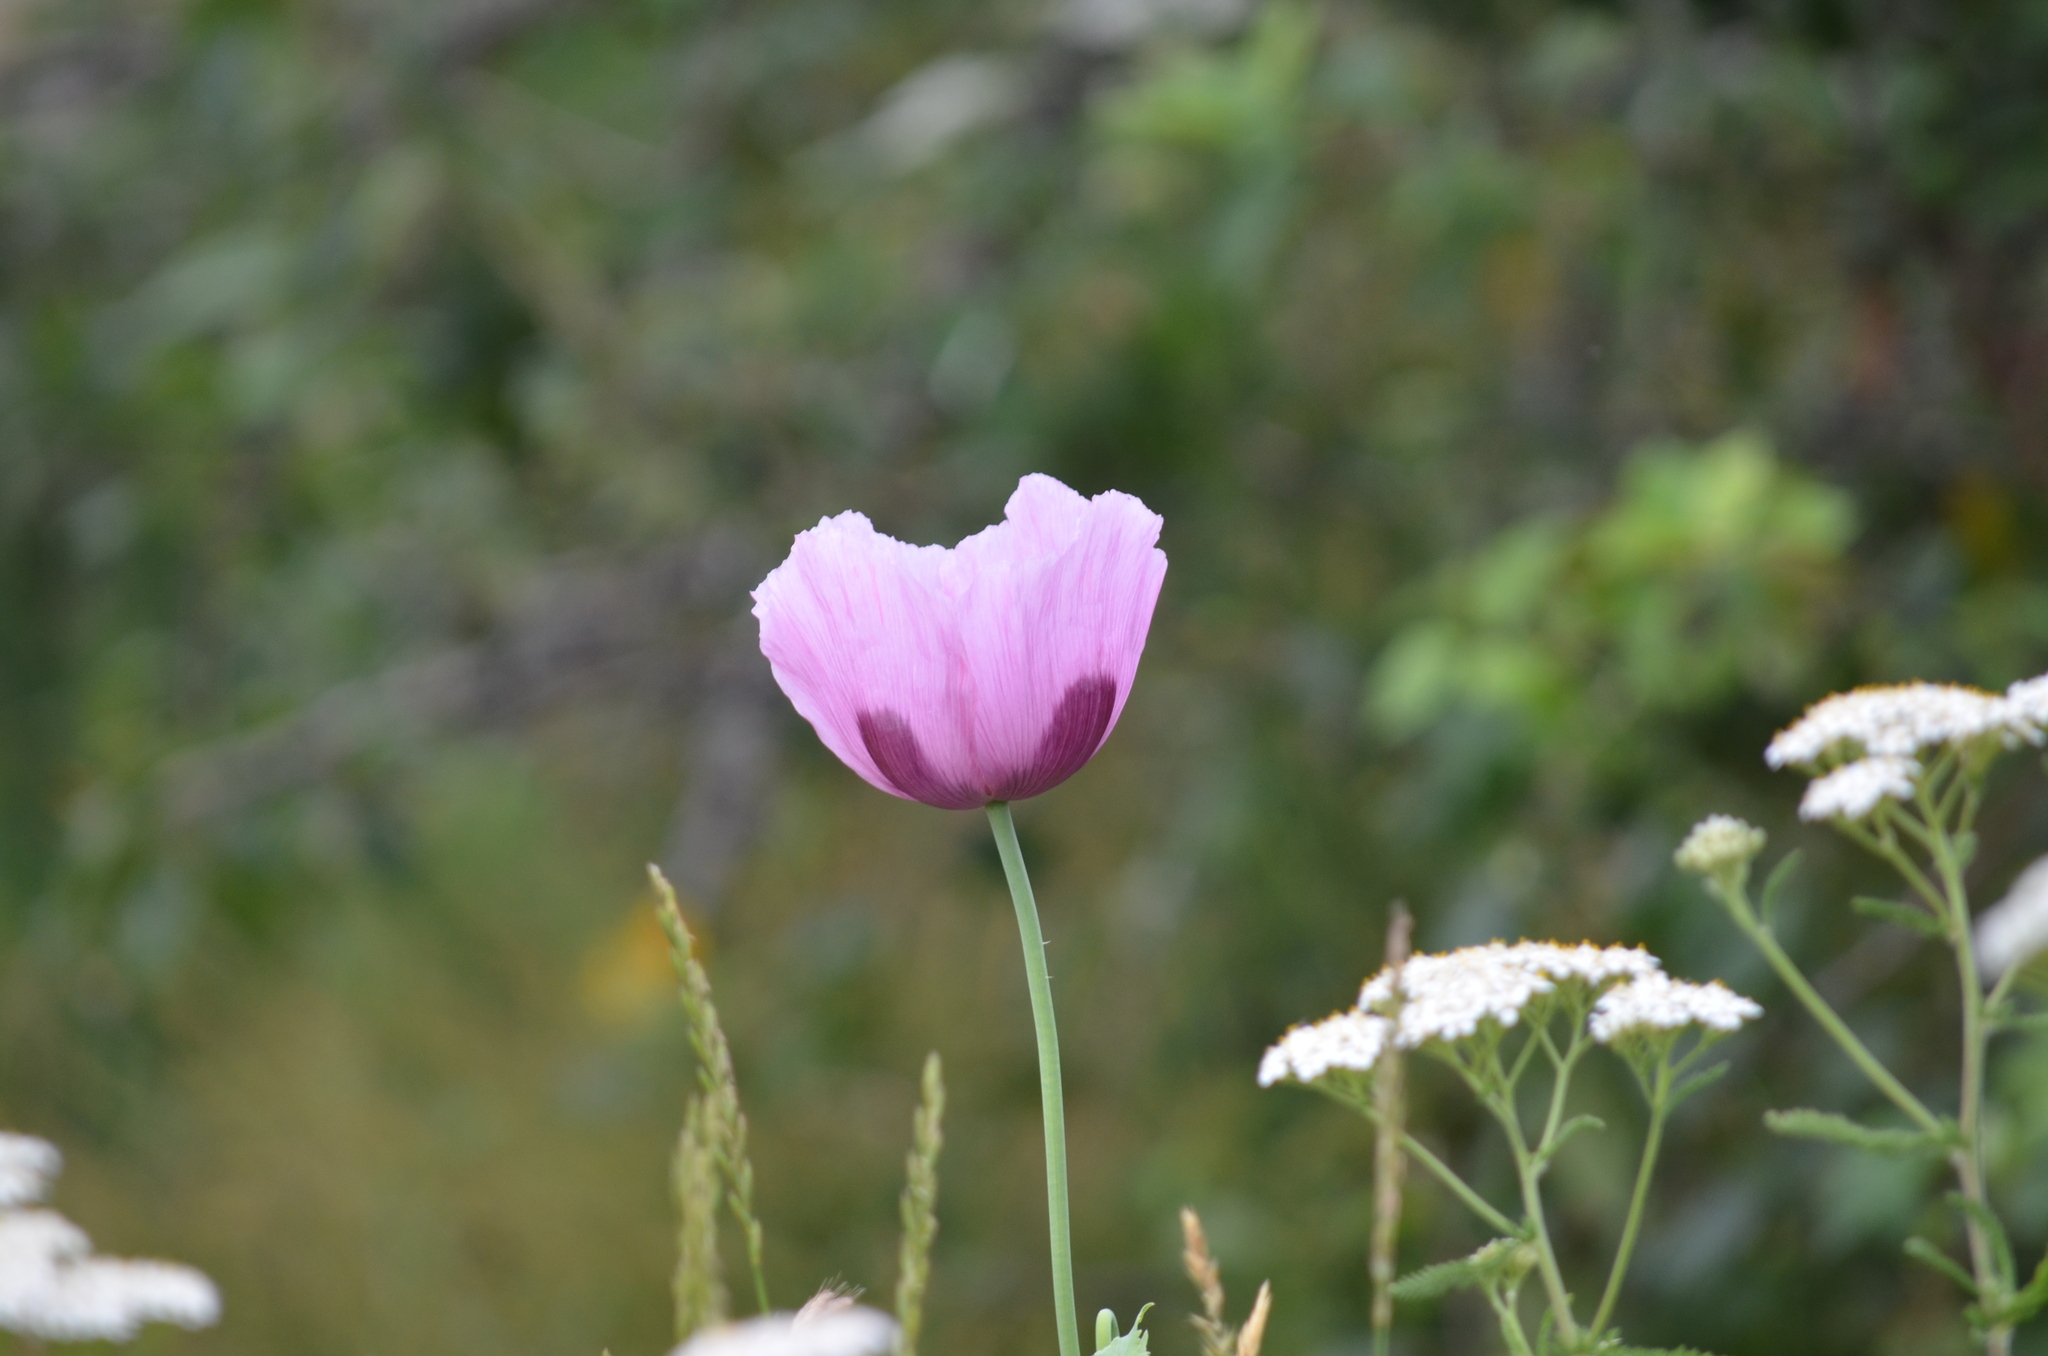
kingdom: Plantae
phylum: Tracheophyta
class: Magnoliopsida
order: Ranunculales
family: Papaveraceae
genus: Papaver
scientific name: Papaver somniferum
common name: Opium poppy
